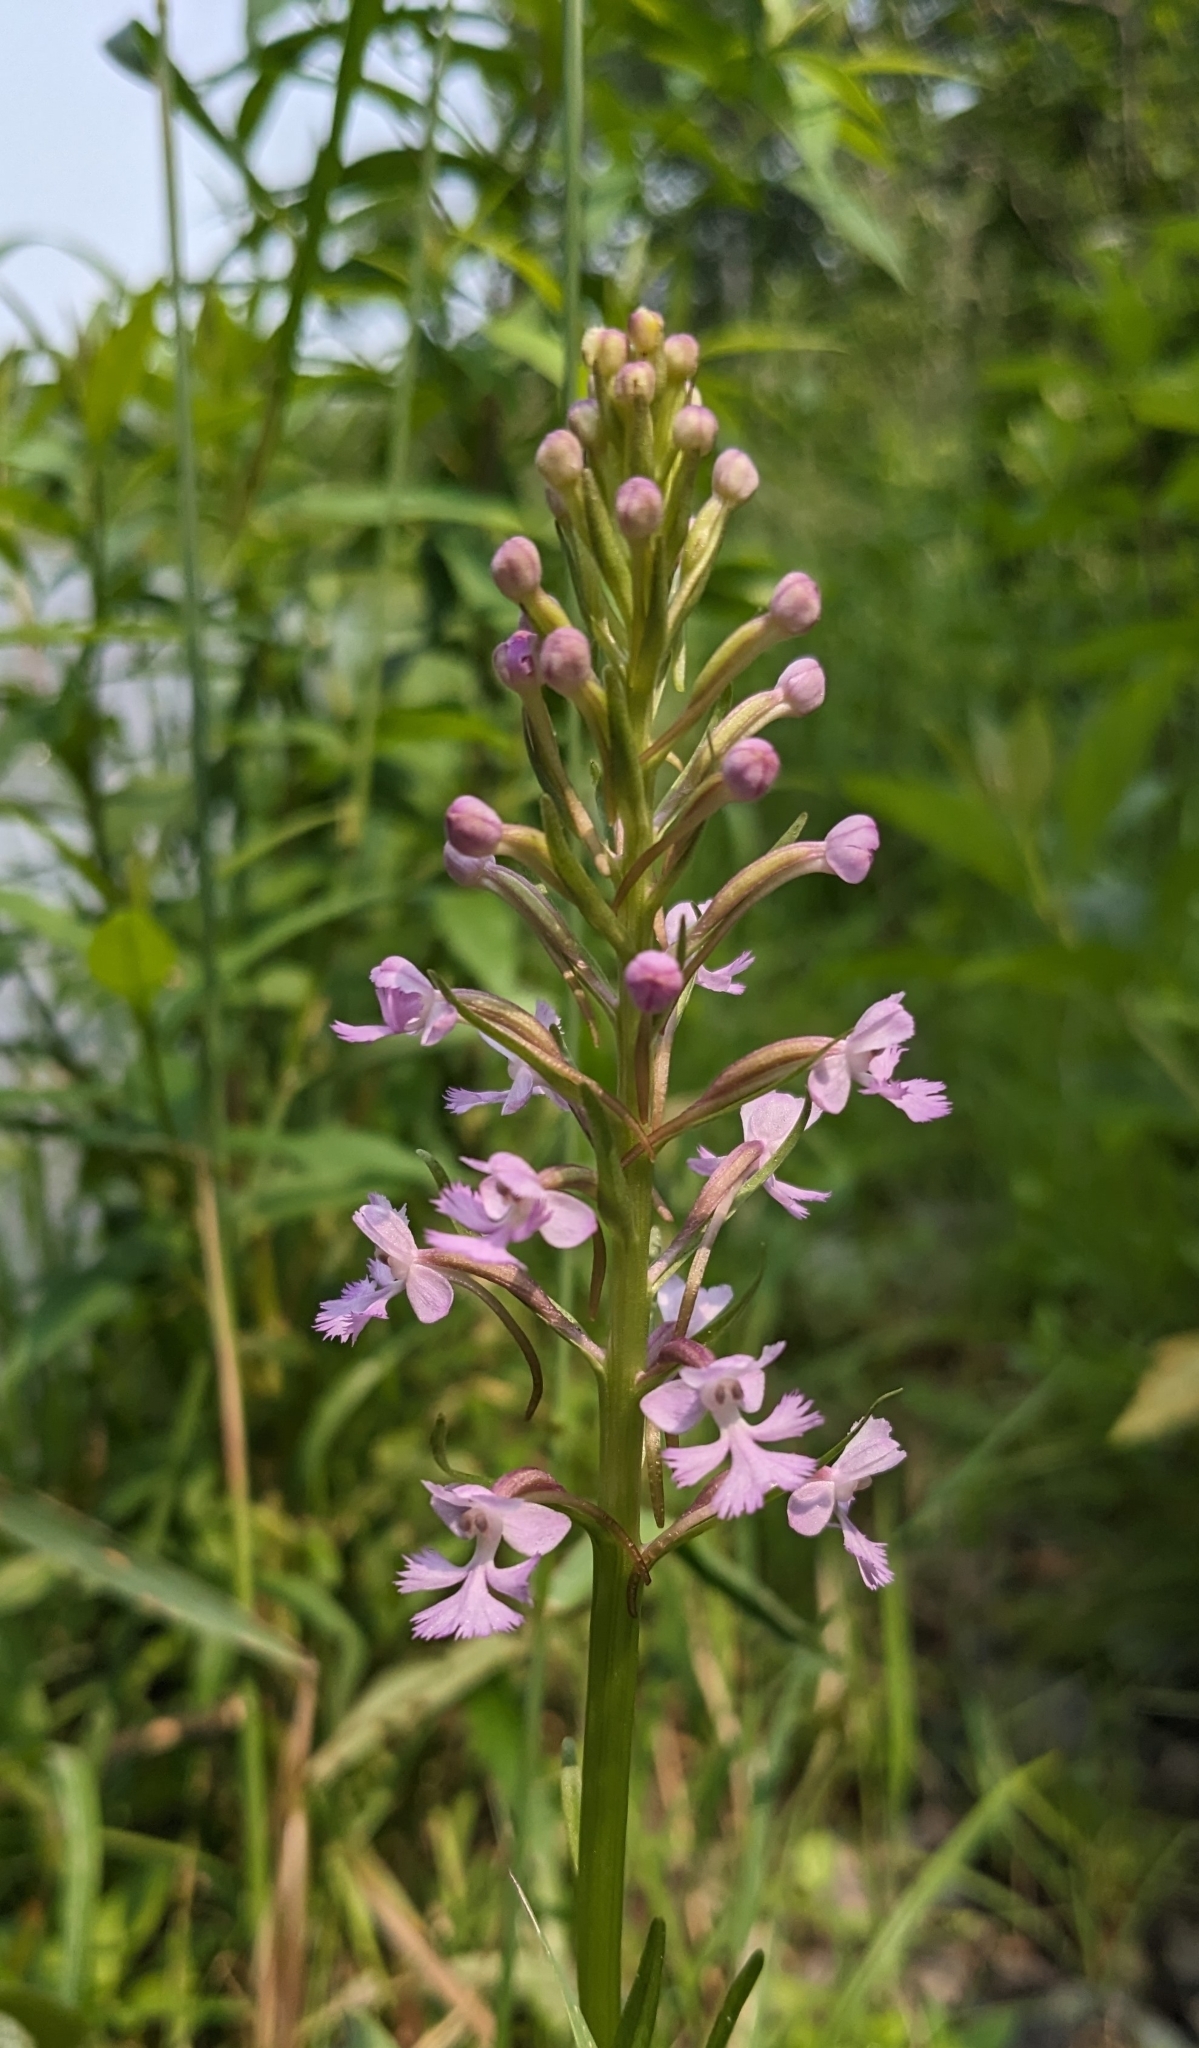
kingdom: Plantae
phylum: Tracheophyta
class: Liliopsida
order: Asparagales
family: Orchidaceae
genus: Platanthera
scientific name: Platanthera psycodes
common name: Lesser purple fringed orchid
